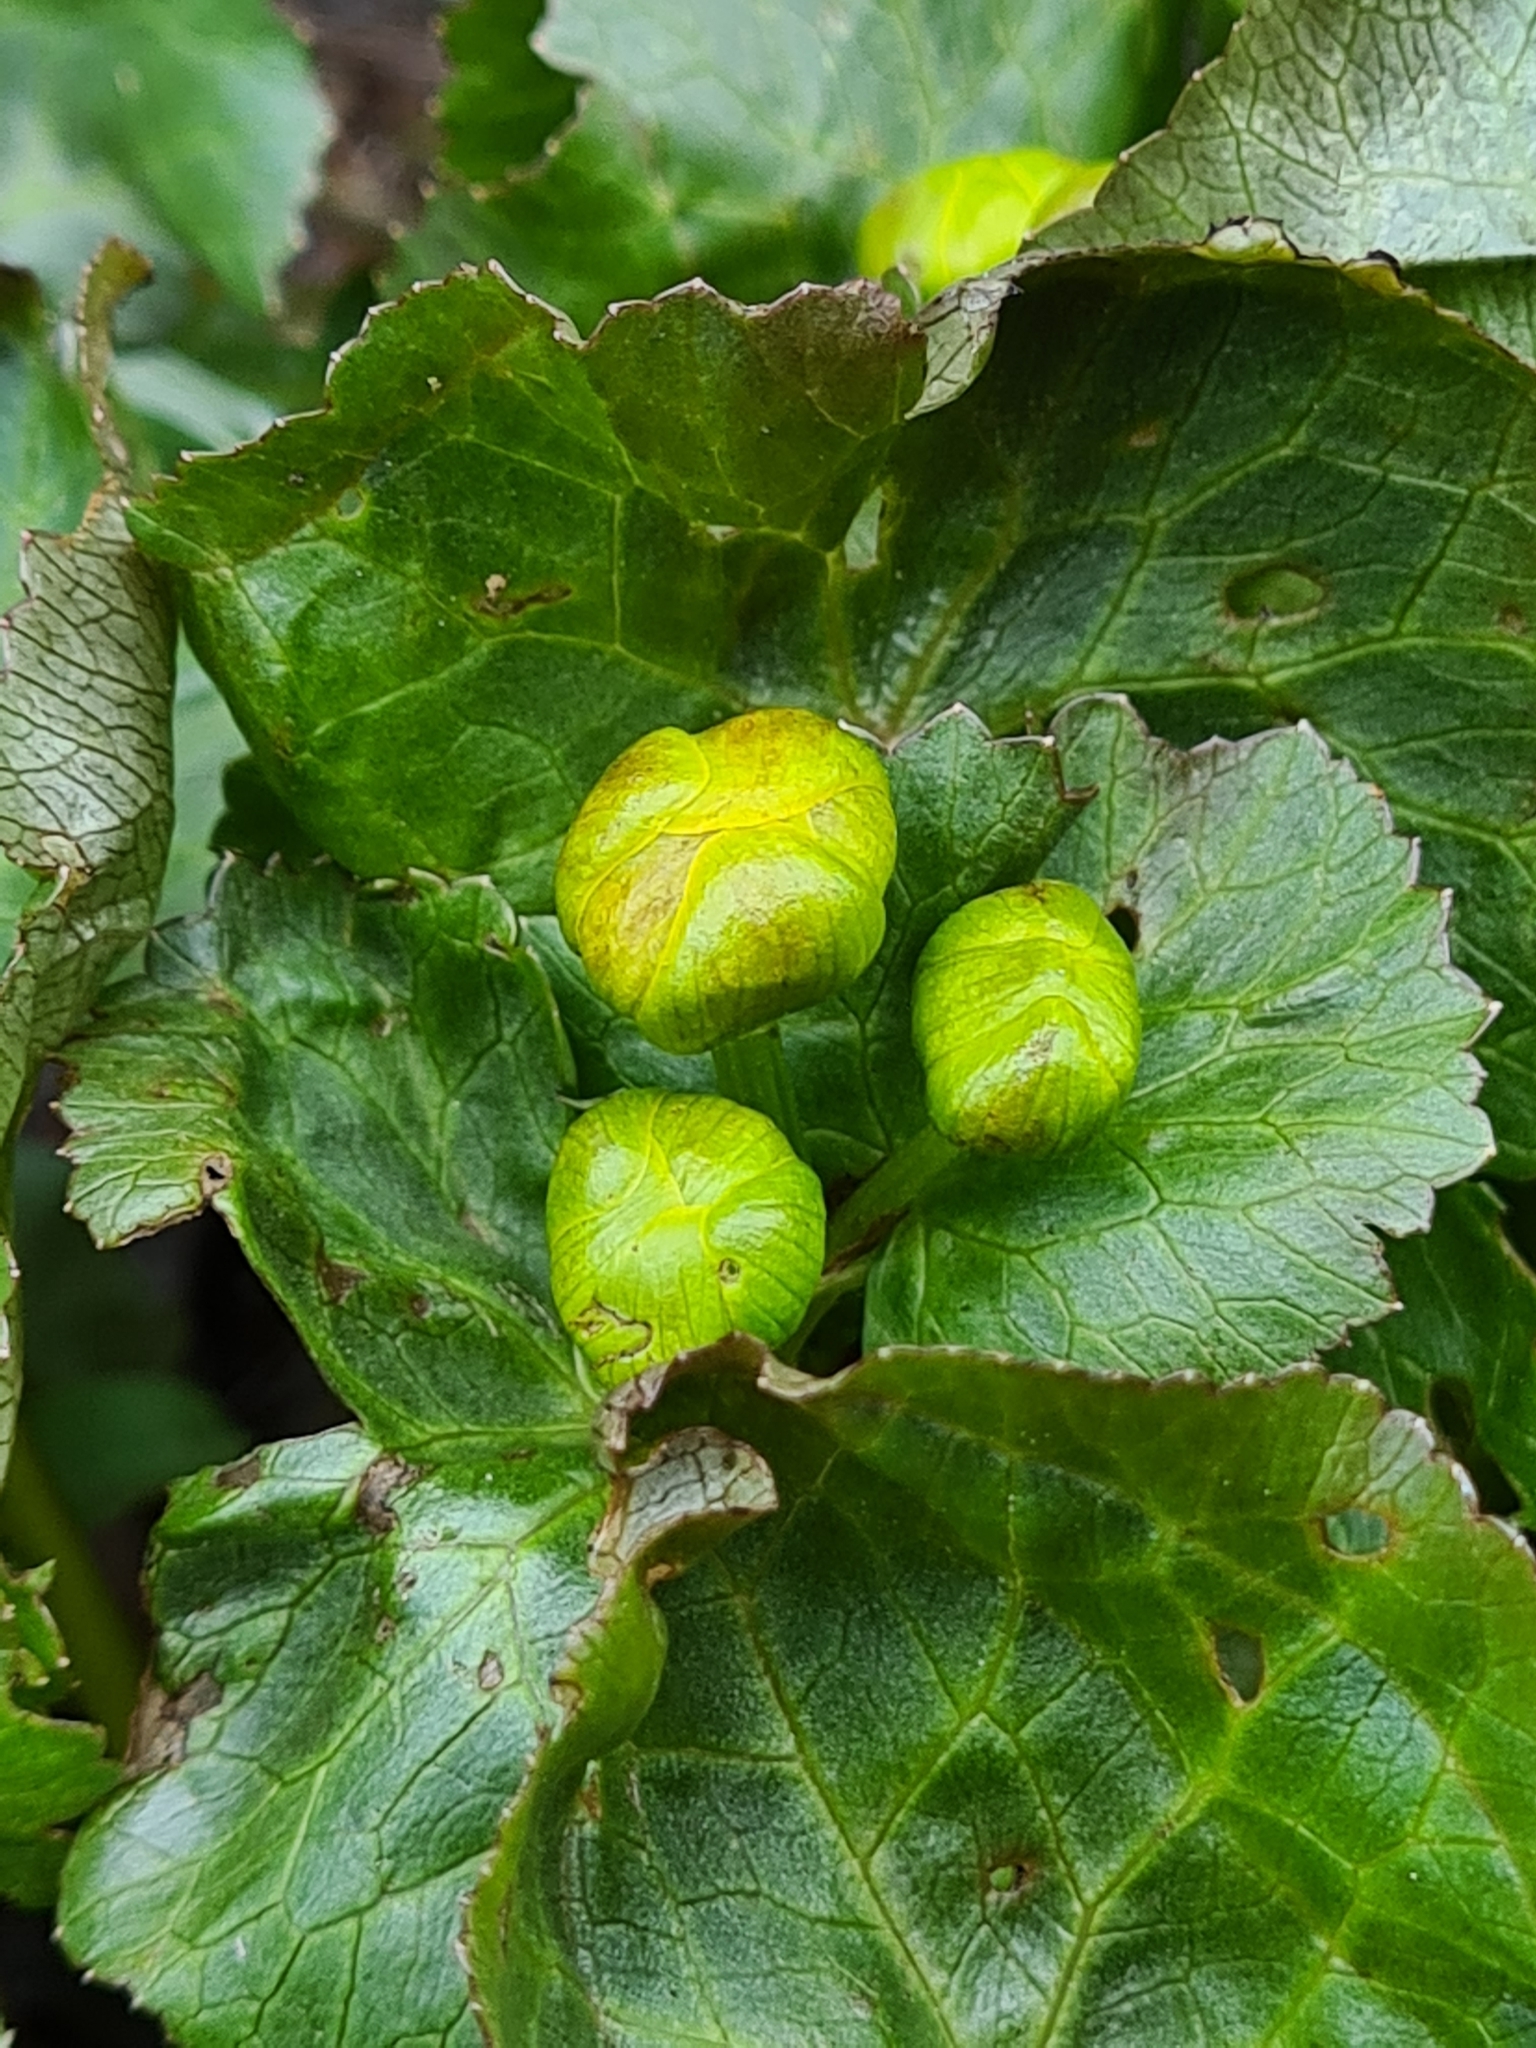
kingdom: Plantae
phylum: Tracheophyta
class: Magnoliopsida
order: Ranunculales
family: Ranunculaceae
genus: Caltha
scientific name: Caltha palustris
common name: Marsh marigold
